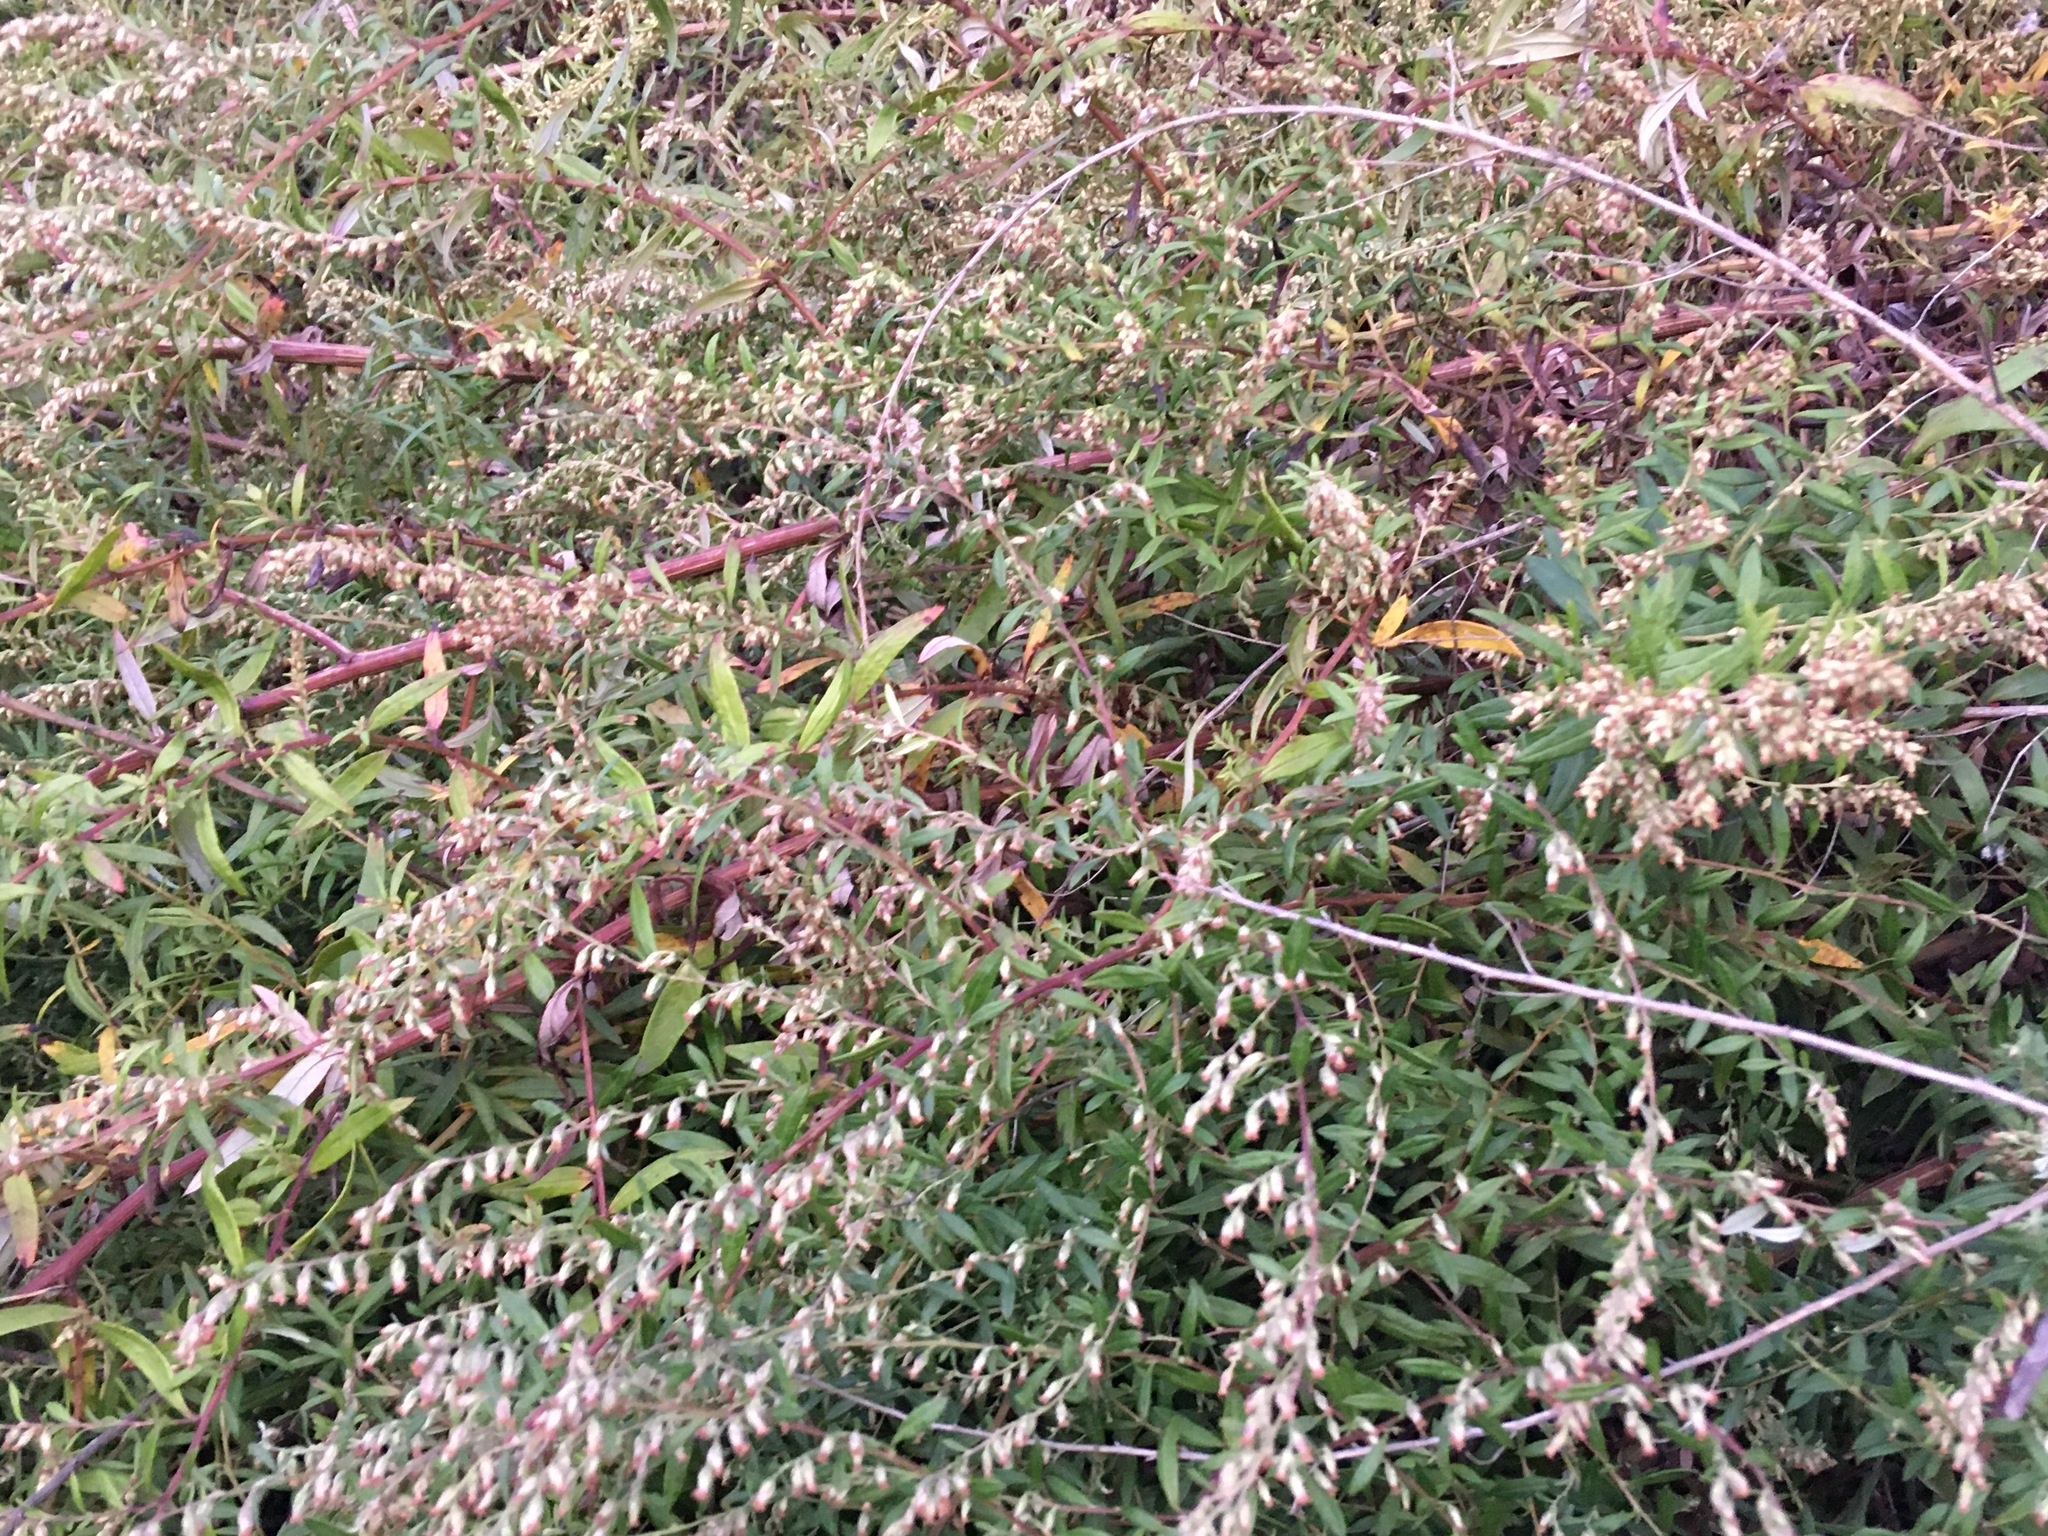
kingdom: Plantae
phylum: Tracheophyta
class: Magnoliopsida
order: Asterales
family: Asteraceae
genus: Artemisia
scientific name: Artemisia vulgaris
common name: Mugwort
